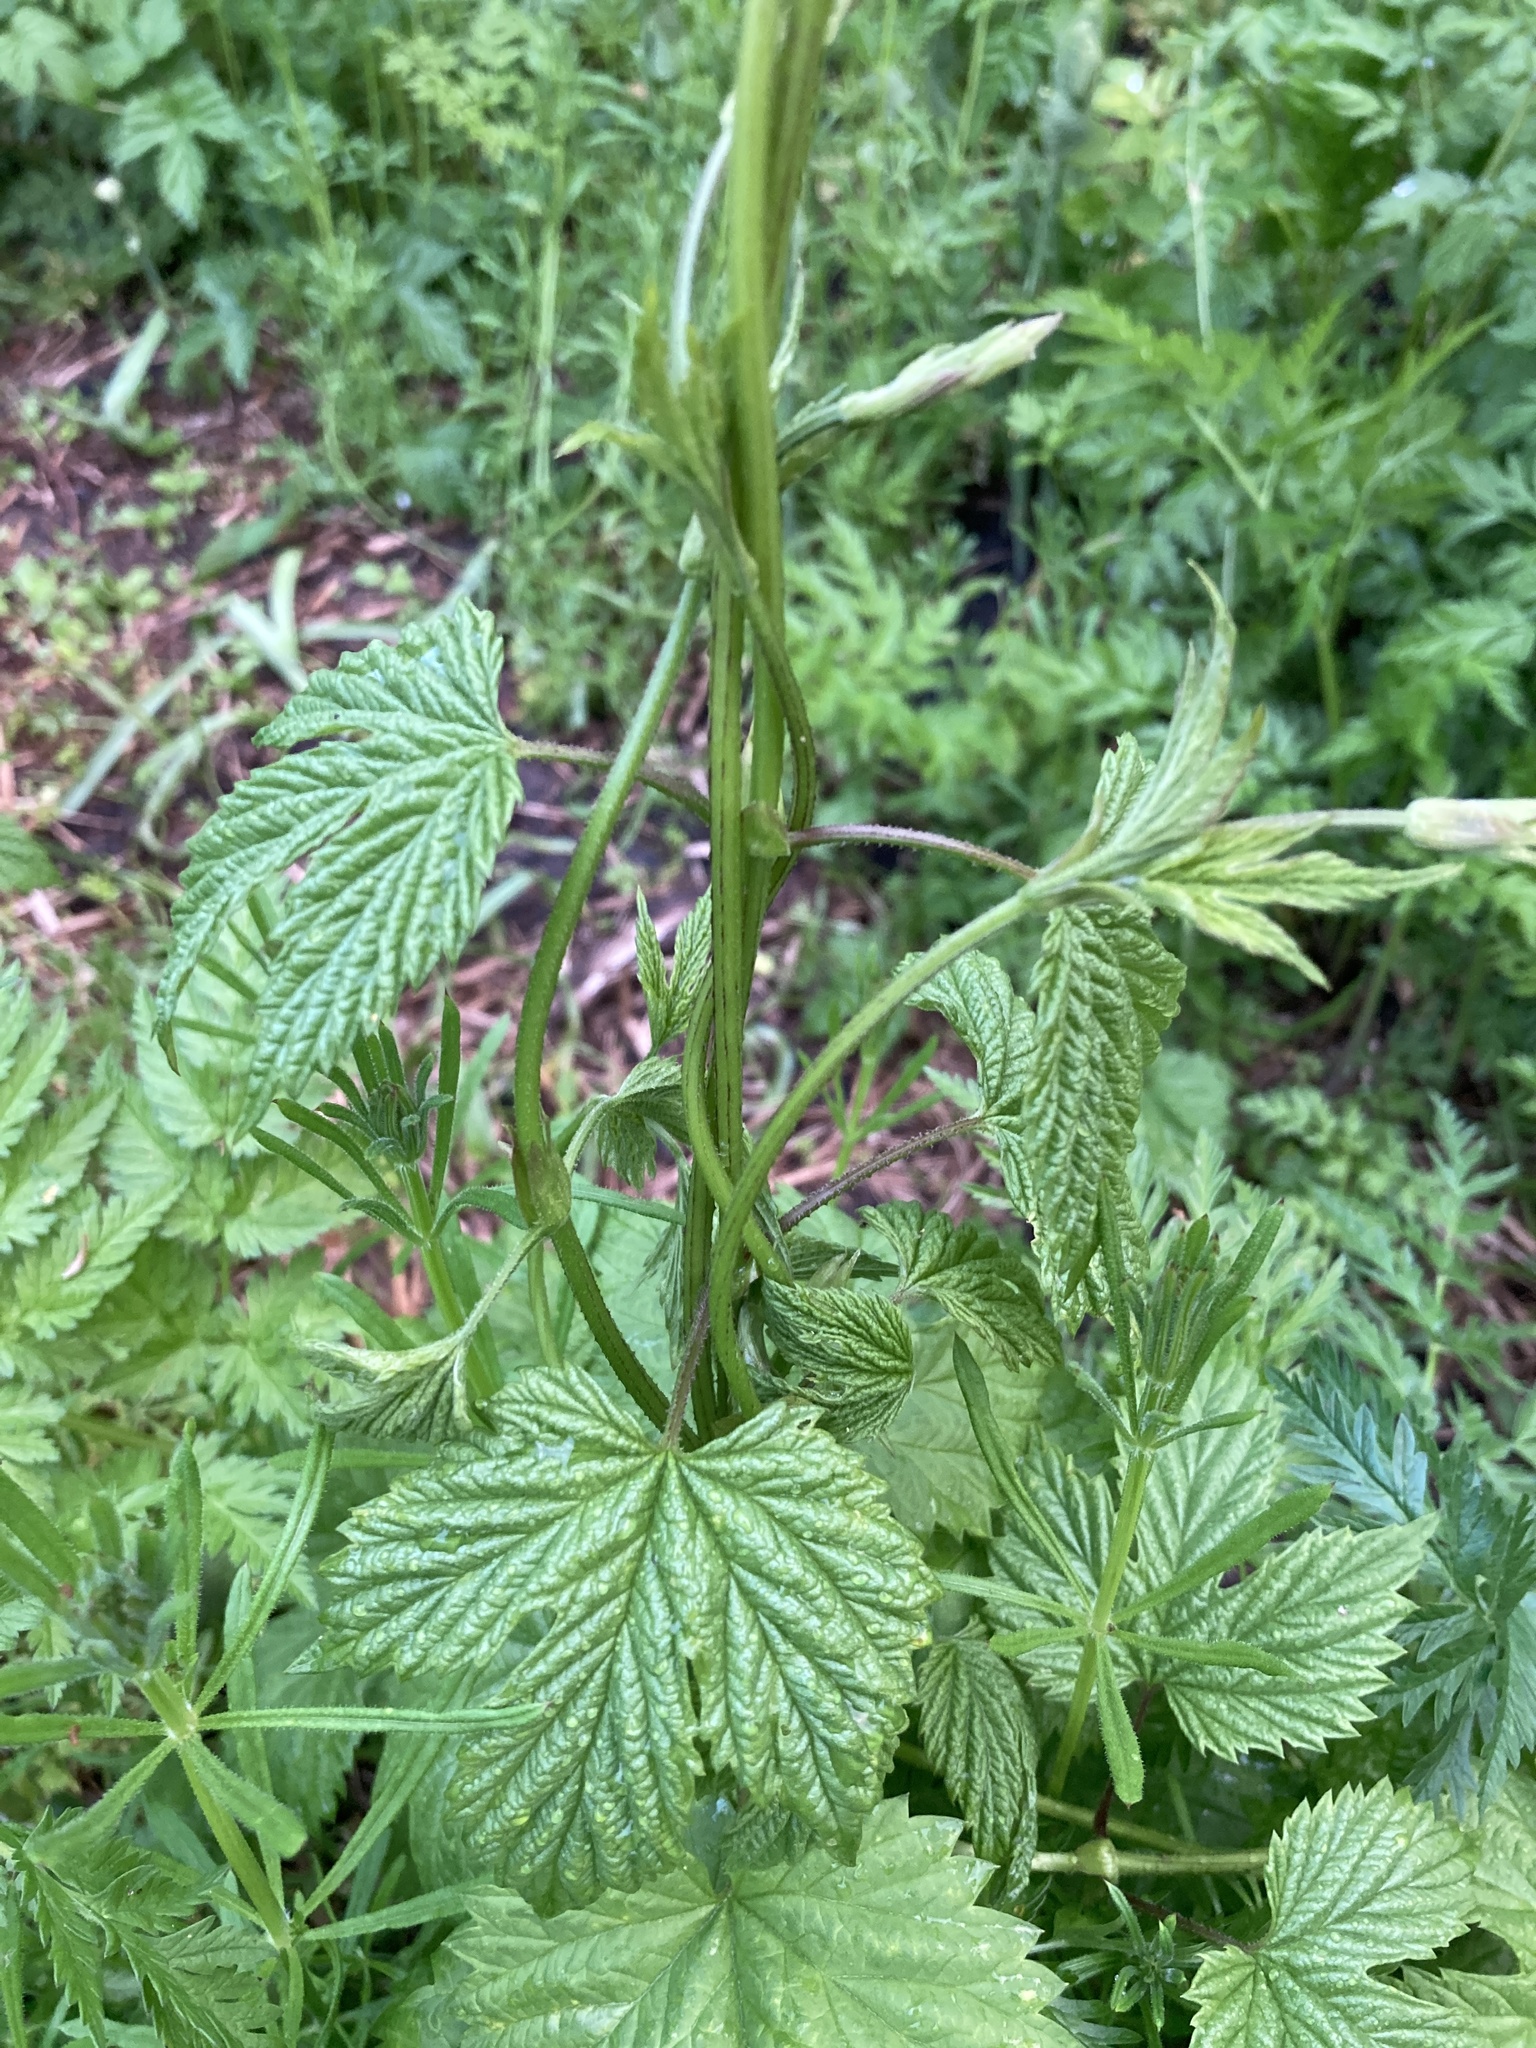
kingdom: Plantae
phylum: Tracheophyta
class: Magnoliopsida
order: Rosales
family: Cannabaceae
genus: Humulus
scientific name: Humulus lupulus
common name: Hop
